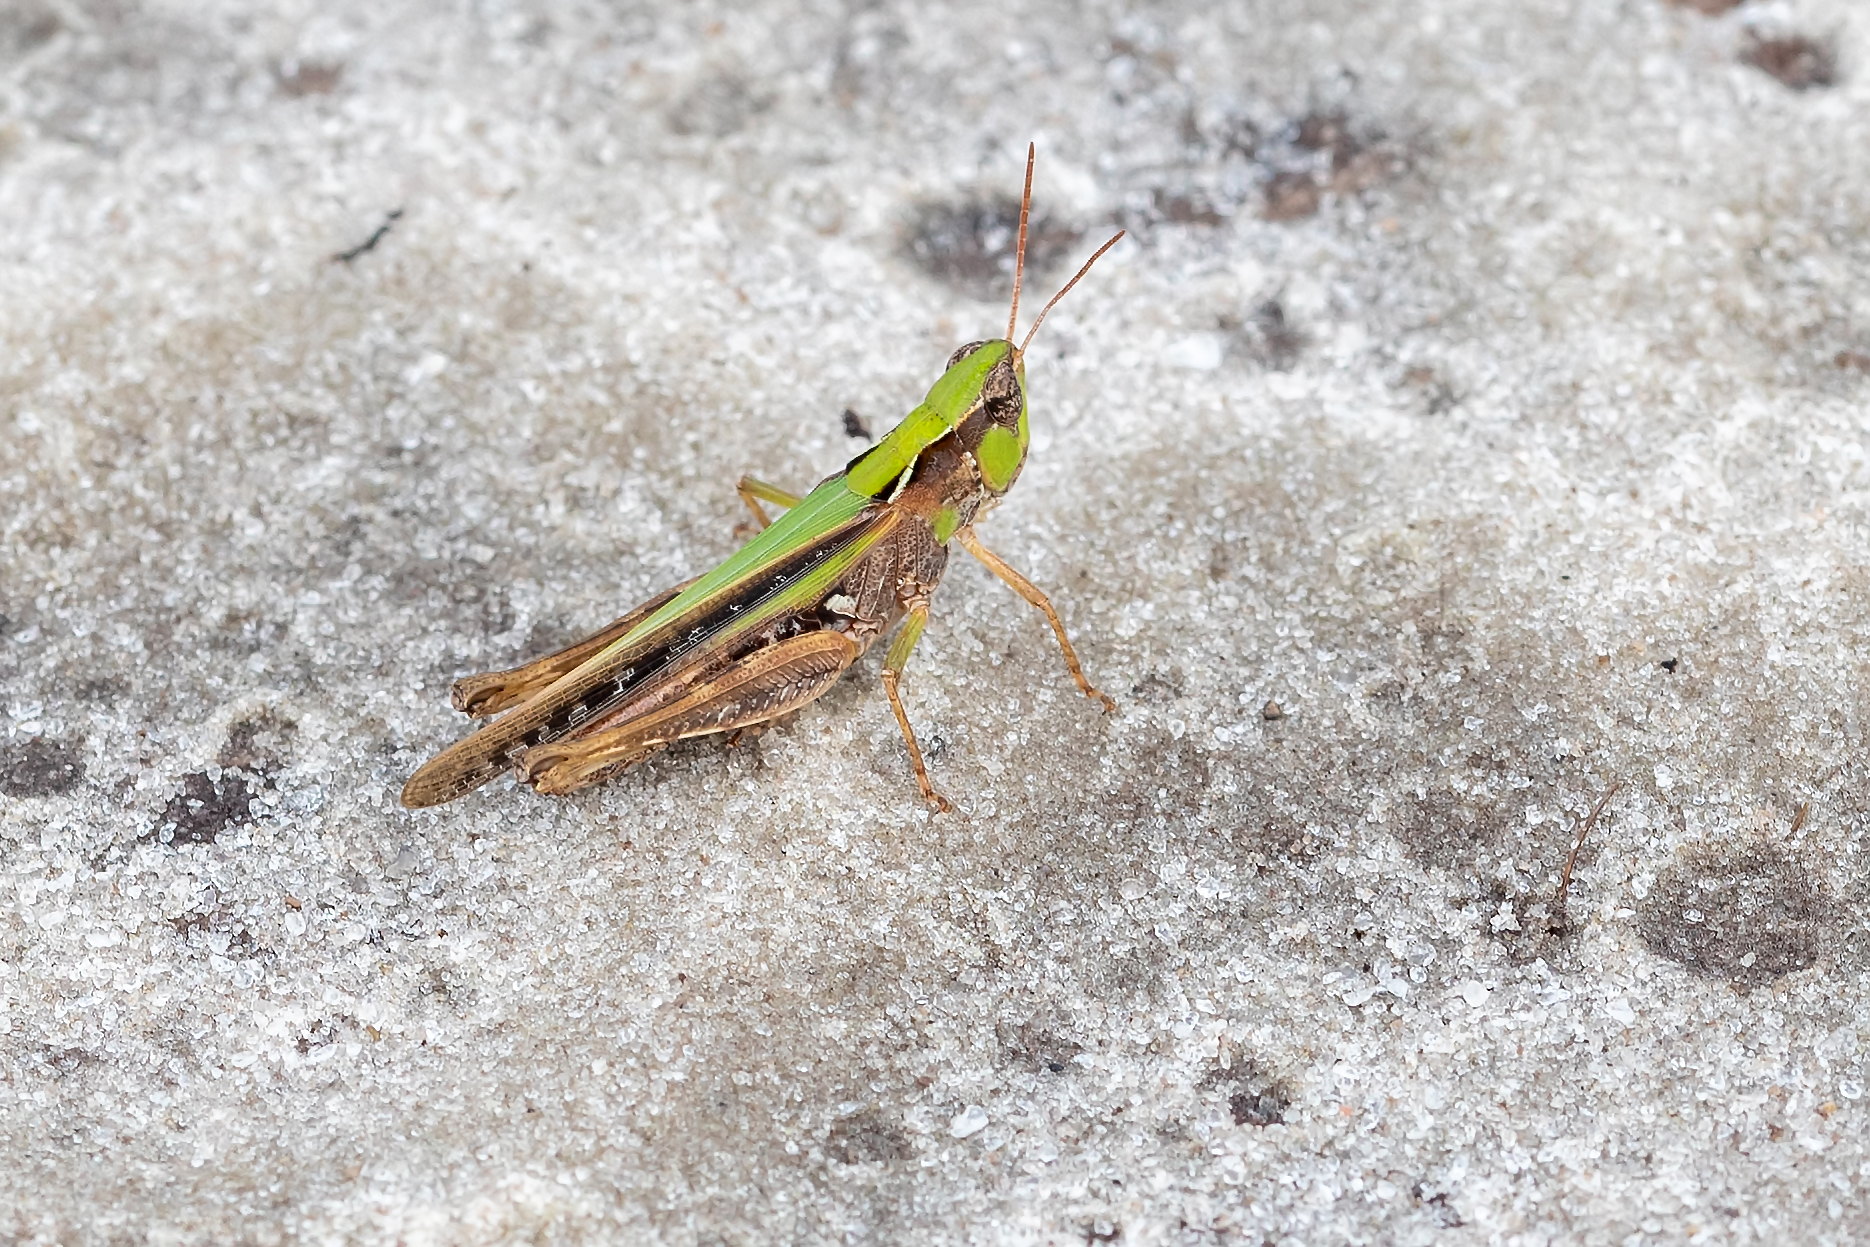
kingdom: Animalia
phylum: Arthropoda
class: Insecta
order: Orthoptera
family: Acrididae
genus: Orphulella
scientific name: Orphulella pelidna
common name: Spotted-wing grasshopper
